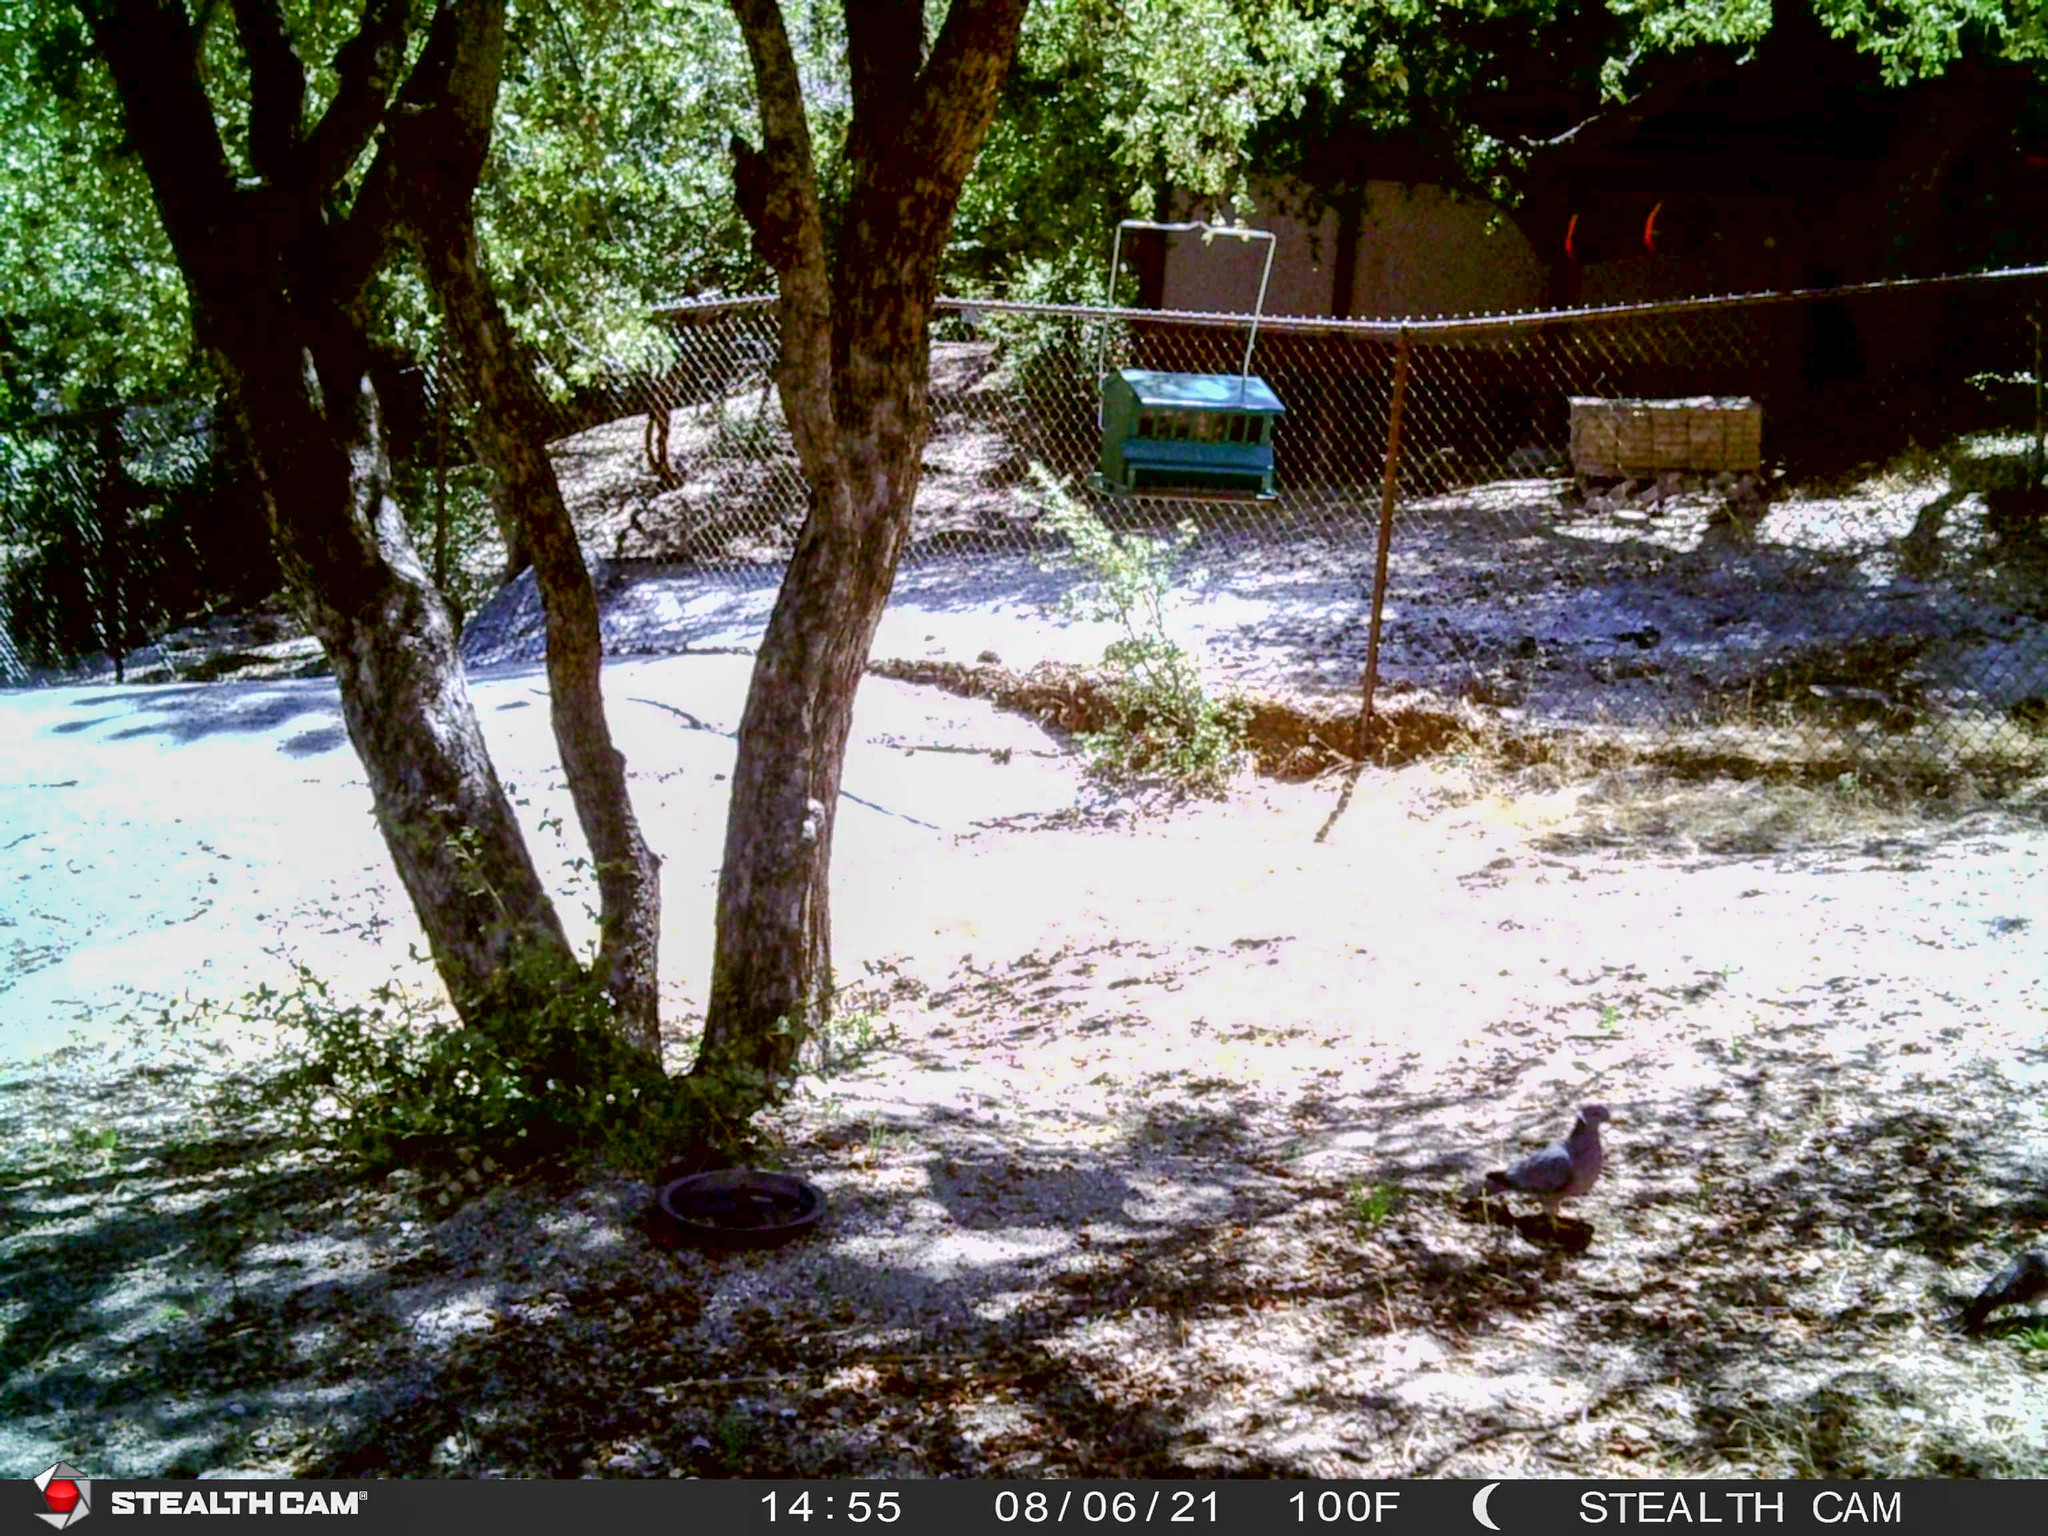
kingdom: Animalia
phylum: Chordata
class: Aves
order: Columbiformes
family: Columbidae
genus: Patagioenas
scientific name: Patagioenas fasciata
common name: Band-tailed pigeon
